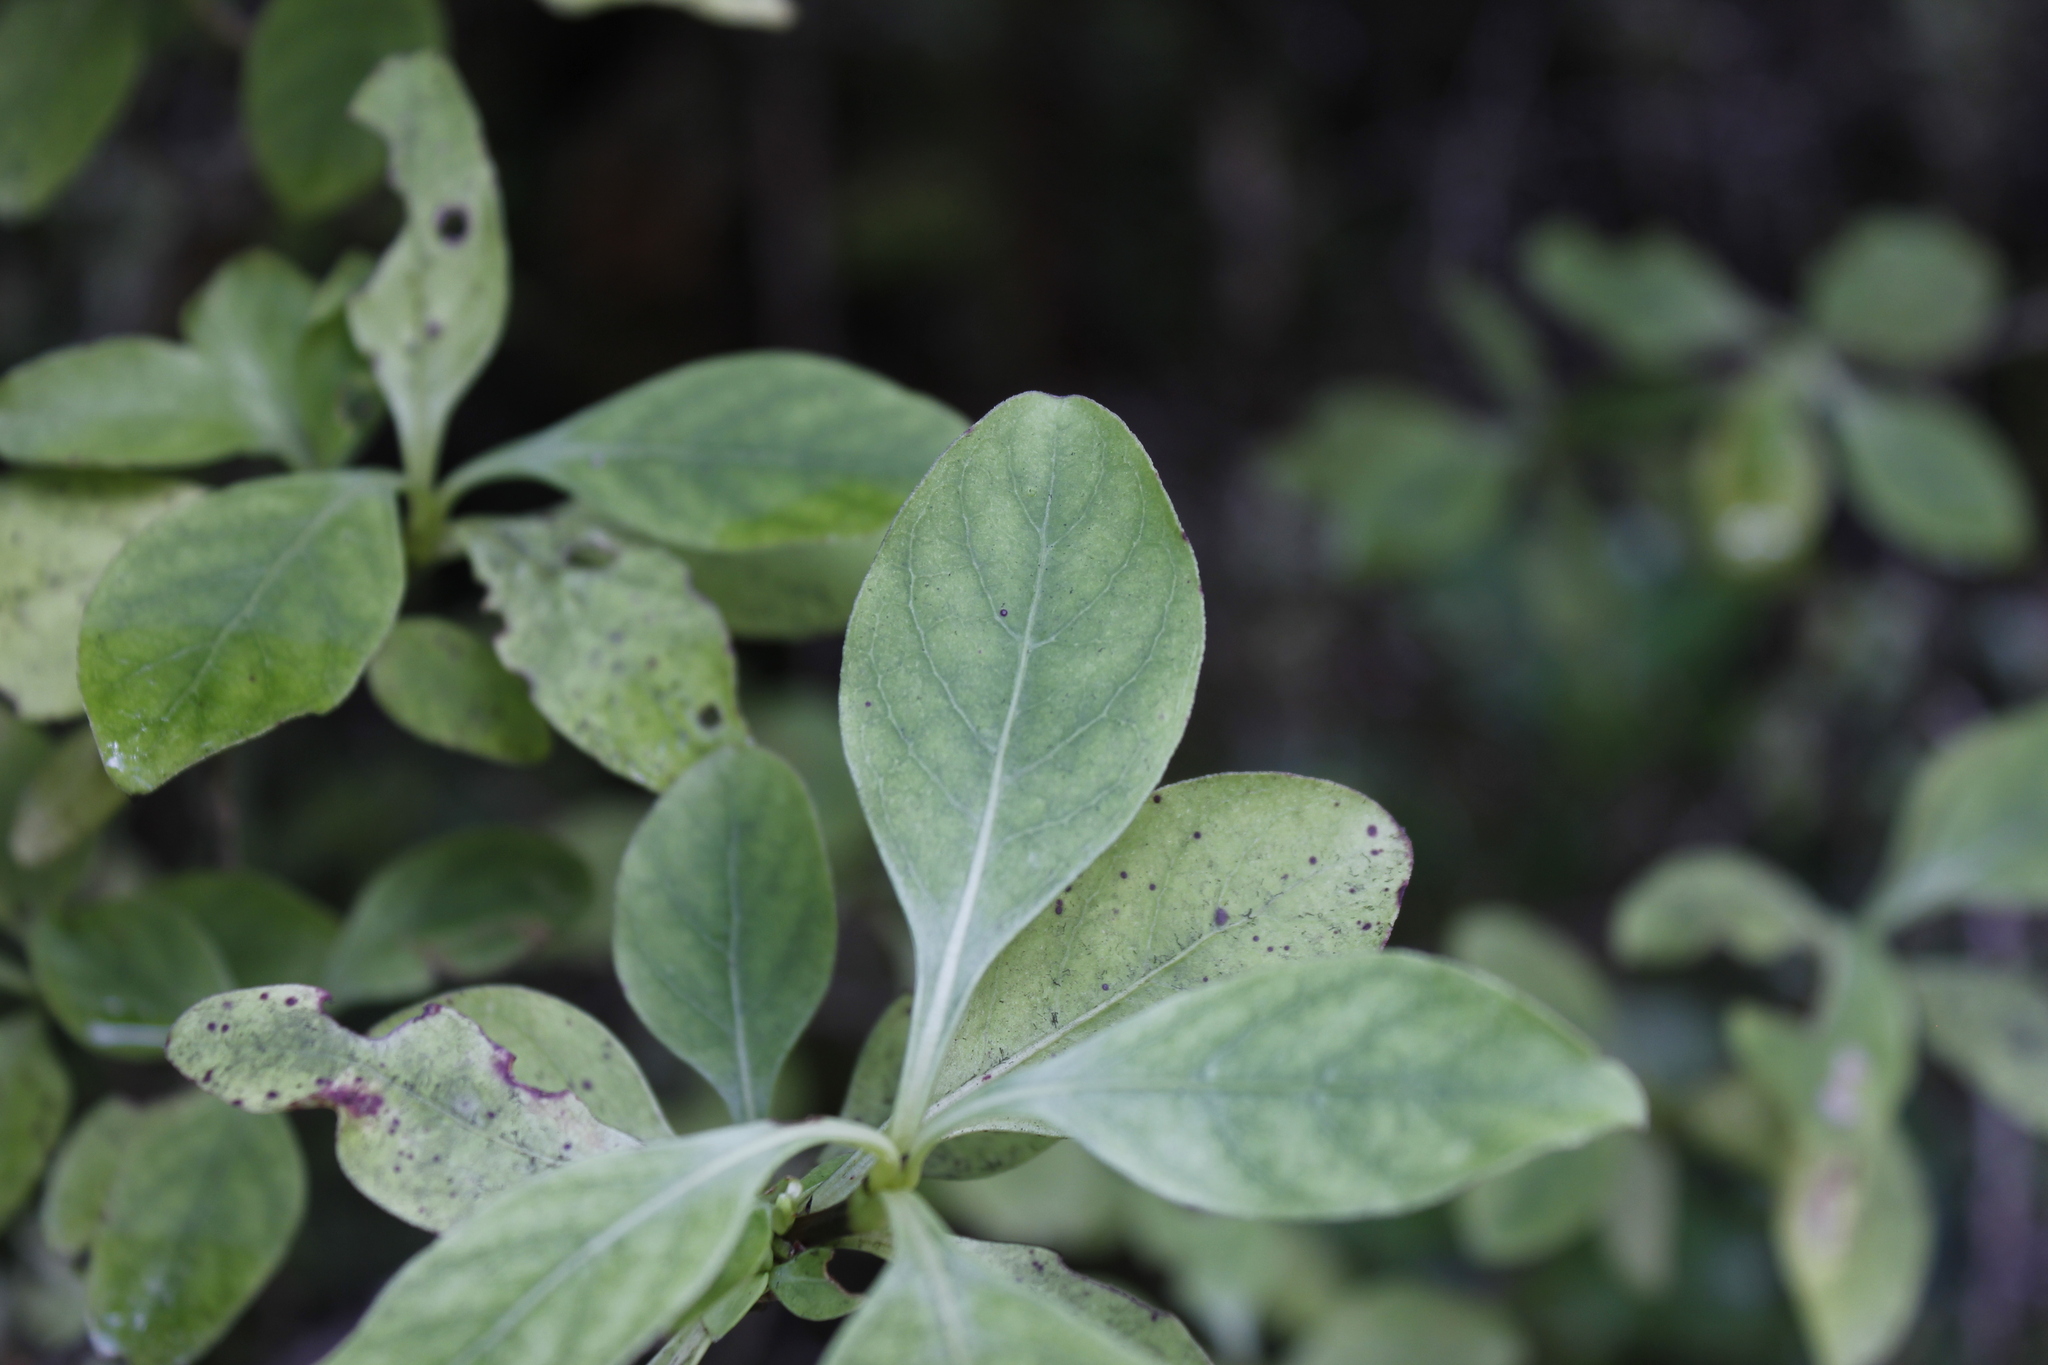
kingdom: Plantae
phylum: Tracheophyta
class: Magnoliopsida
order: Gentianales
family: Rubiaceae
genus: Coprosma
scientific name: Coprosma foetidissima
